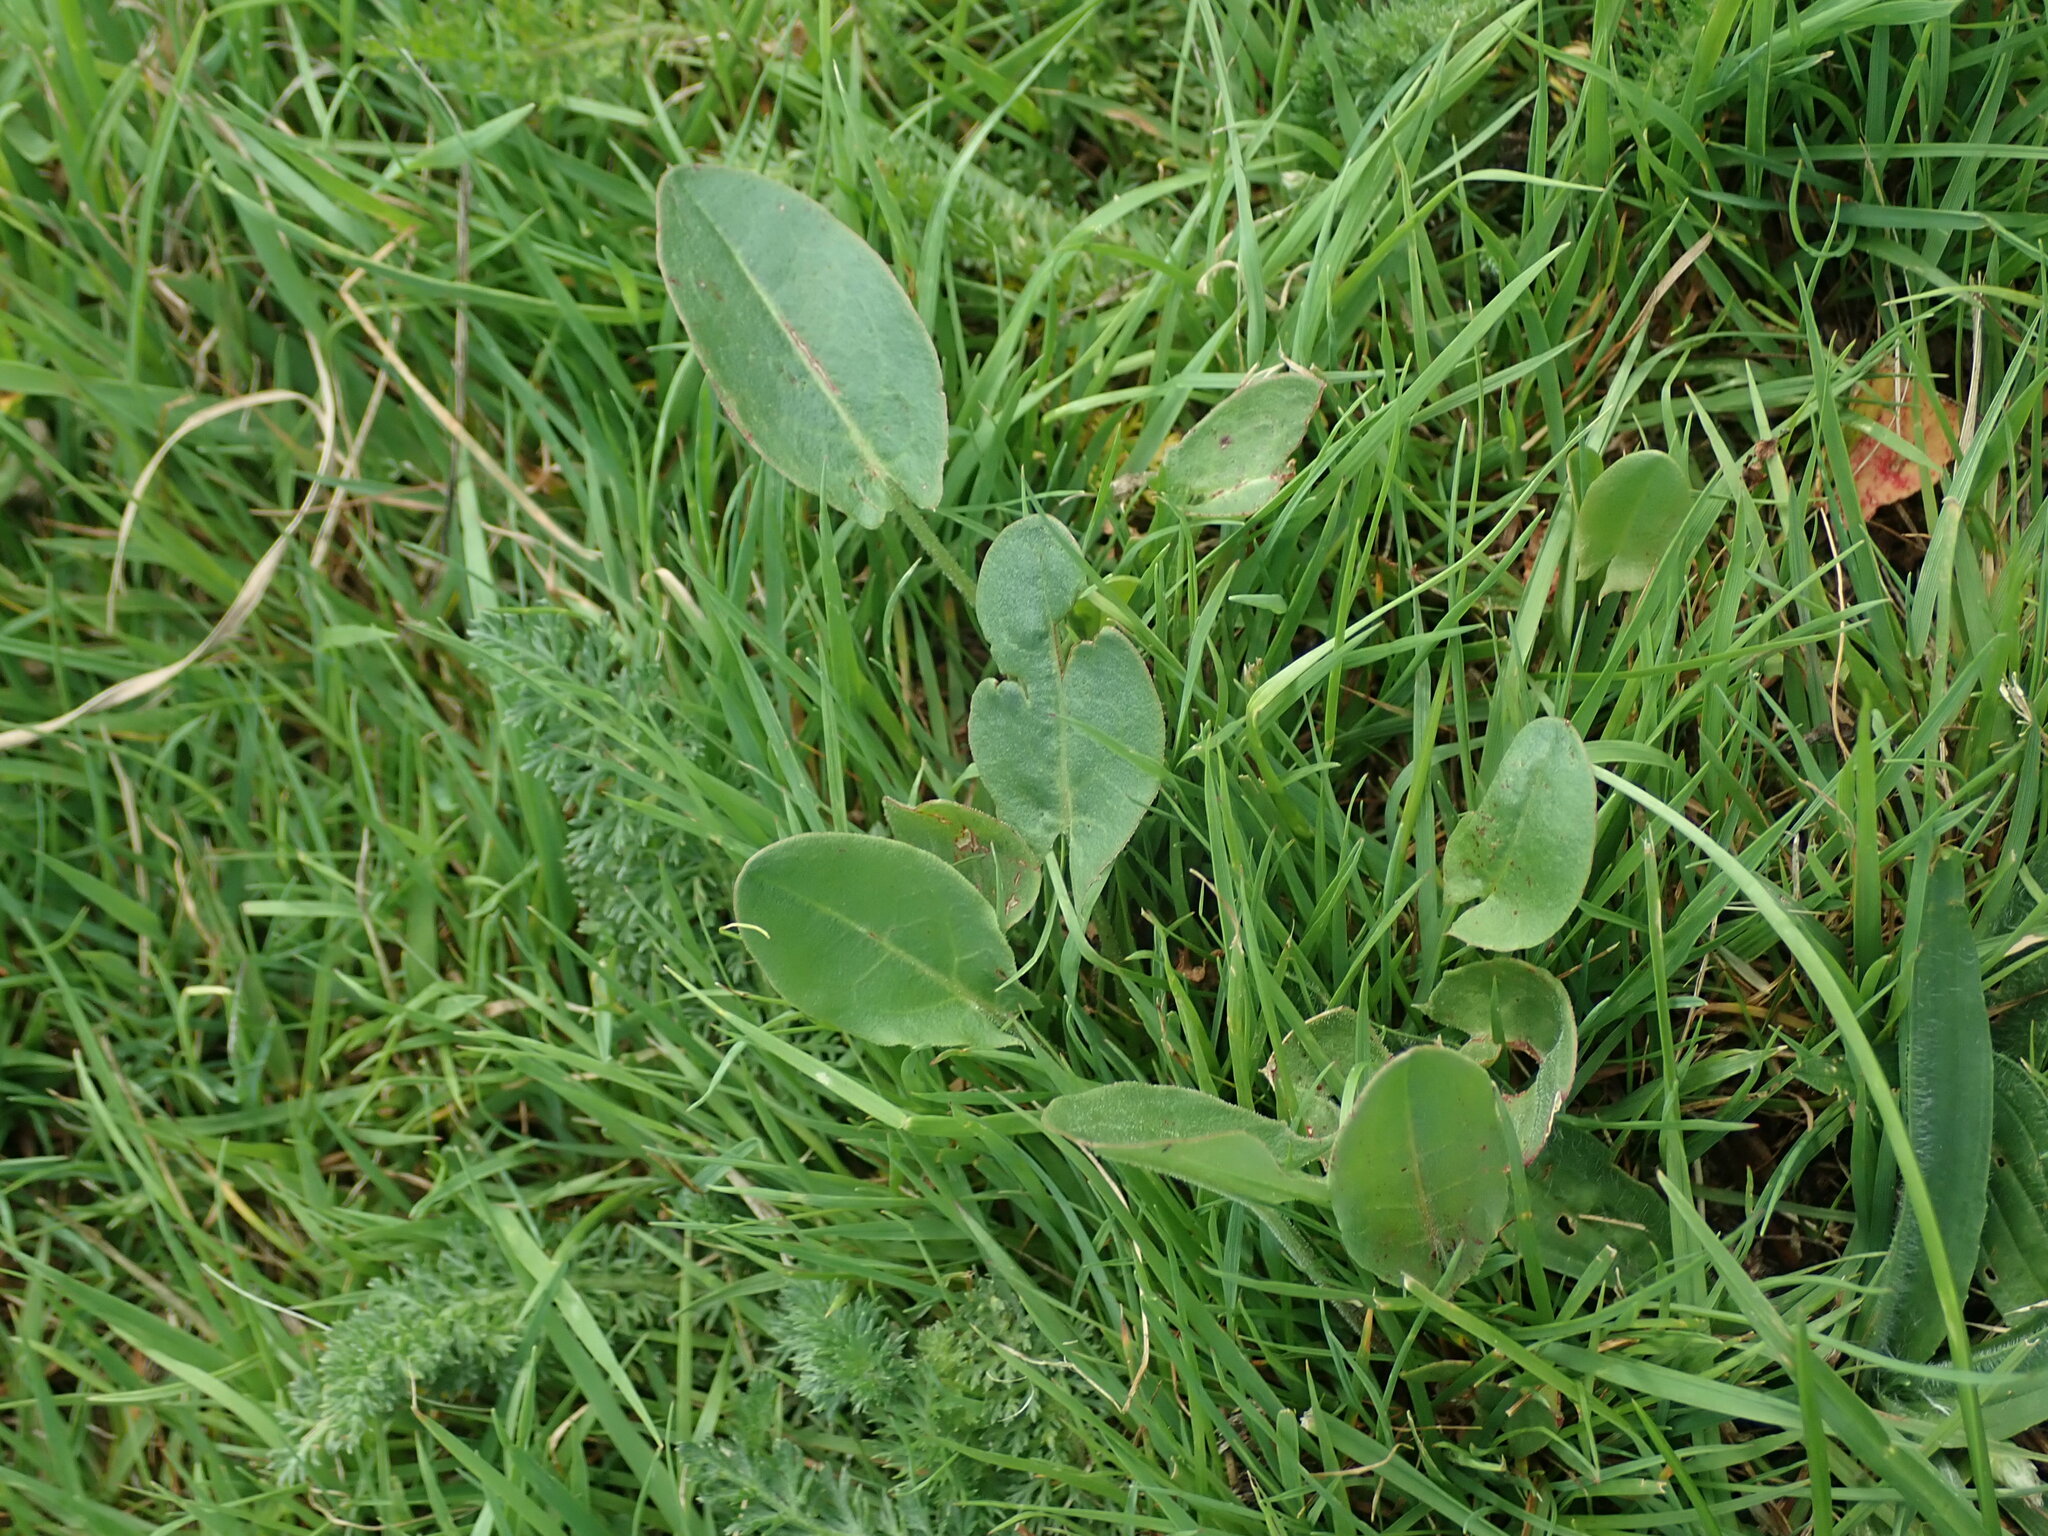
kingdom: Plantae
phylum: Tracheophyta
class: Magnoliopsida
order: Caryophyllales
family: Polygonaceae
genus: Rumex
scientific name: Rumex acetosa
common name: Garden sorrel
